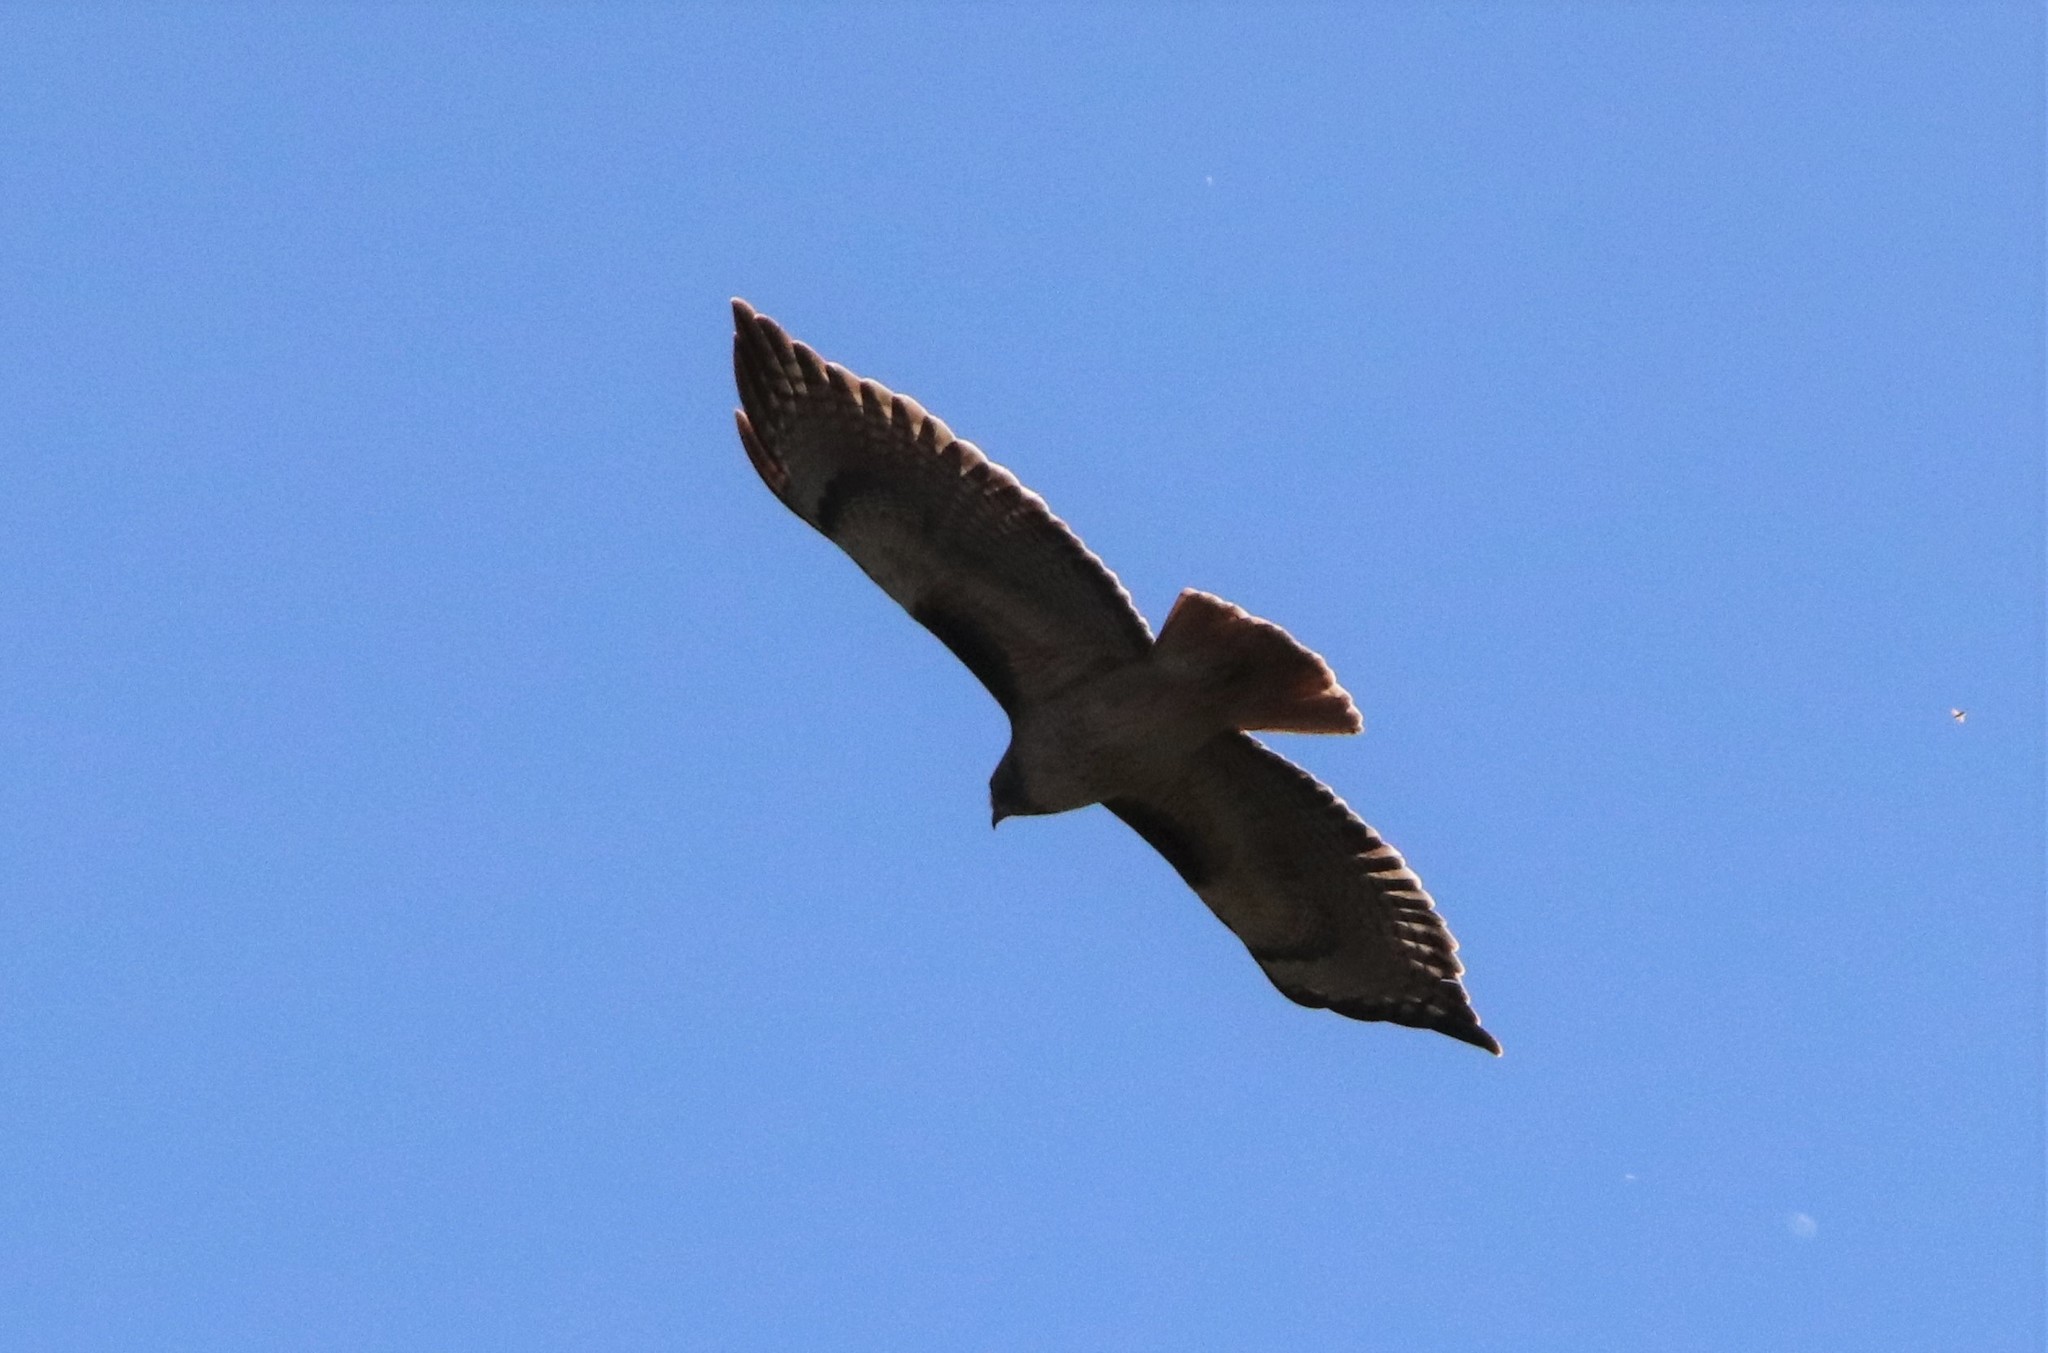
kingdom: Animalia
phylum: Chordata
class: Aves
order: Accipitriformes
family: Accipitridae
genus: Buteo
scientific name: Buteo jamaicensis
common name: Red-tailed hawk
